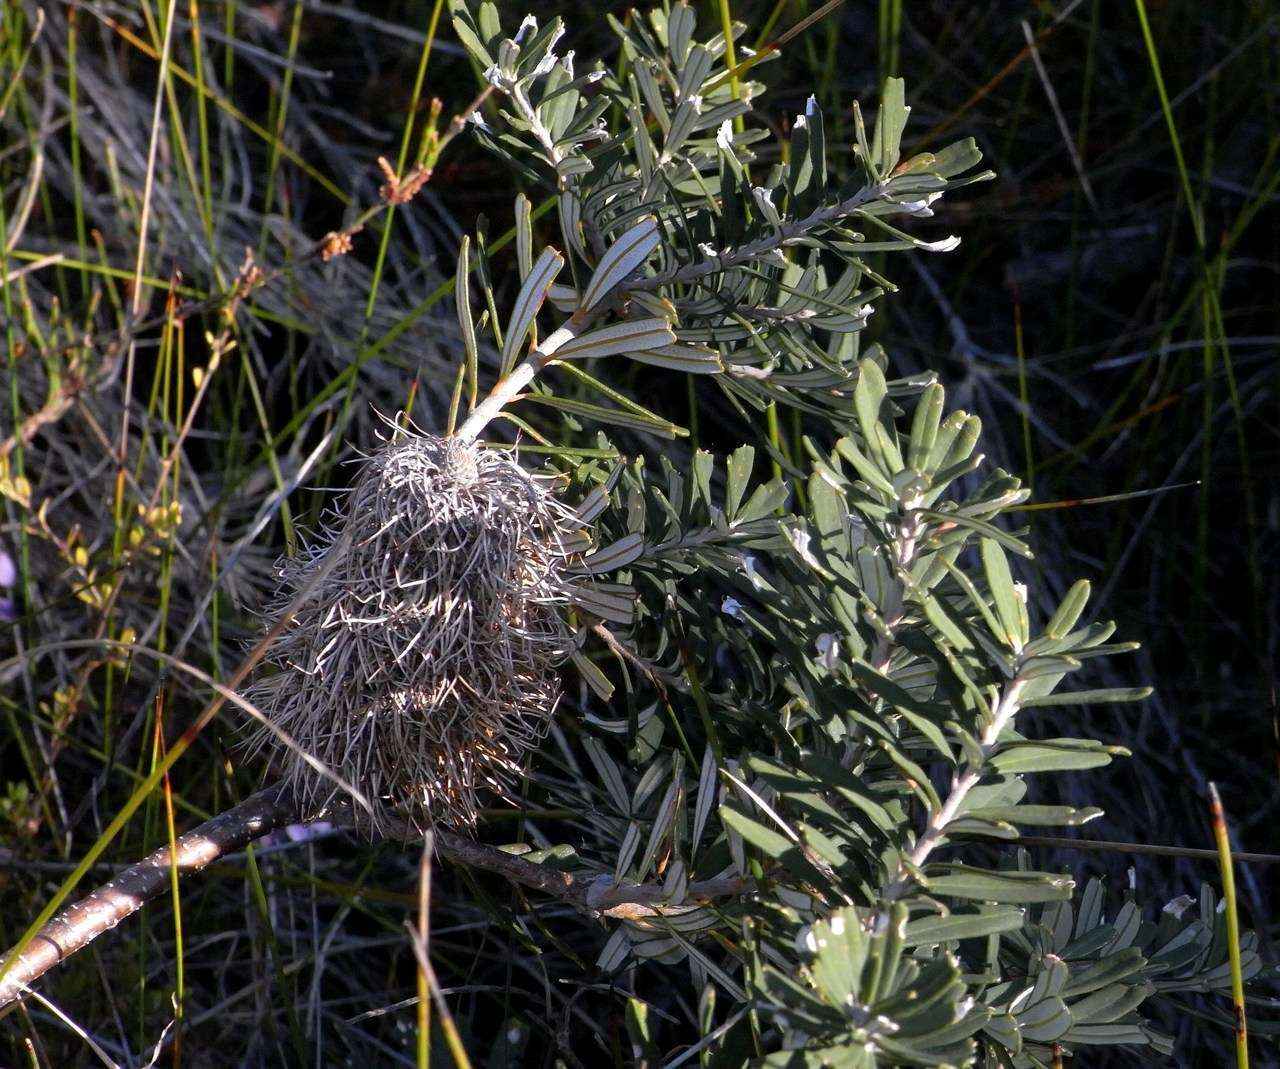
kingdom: Plantae
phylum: Tracheophyta
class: Magnoliopsida
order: Proteales
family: Proteaceae
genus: Banksia
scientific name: Banksia marginata
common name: Silver banksia
